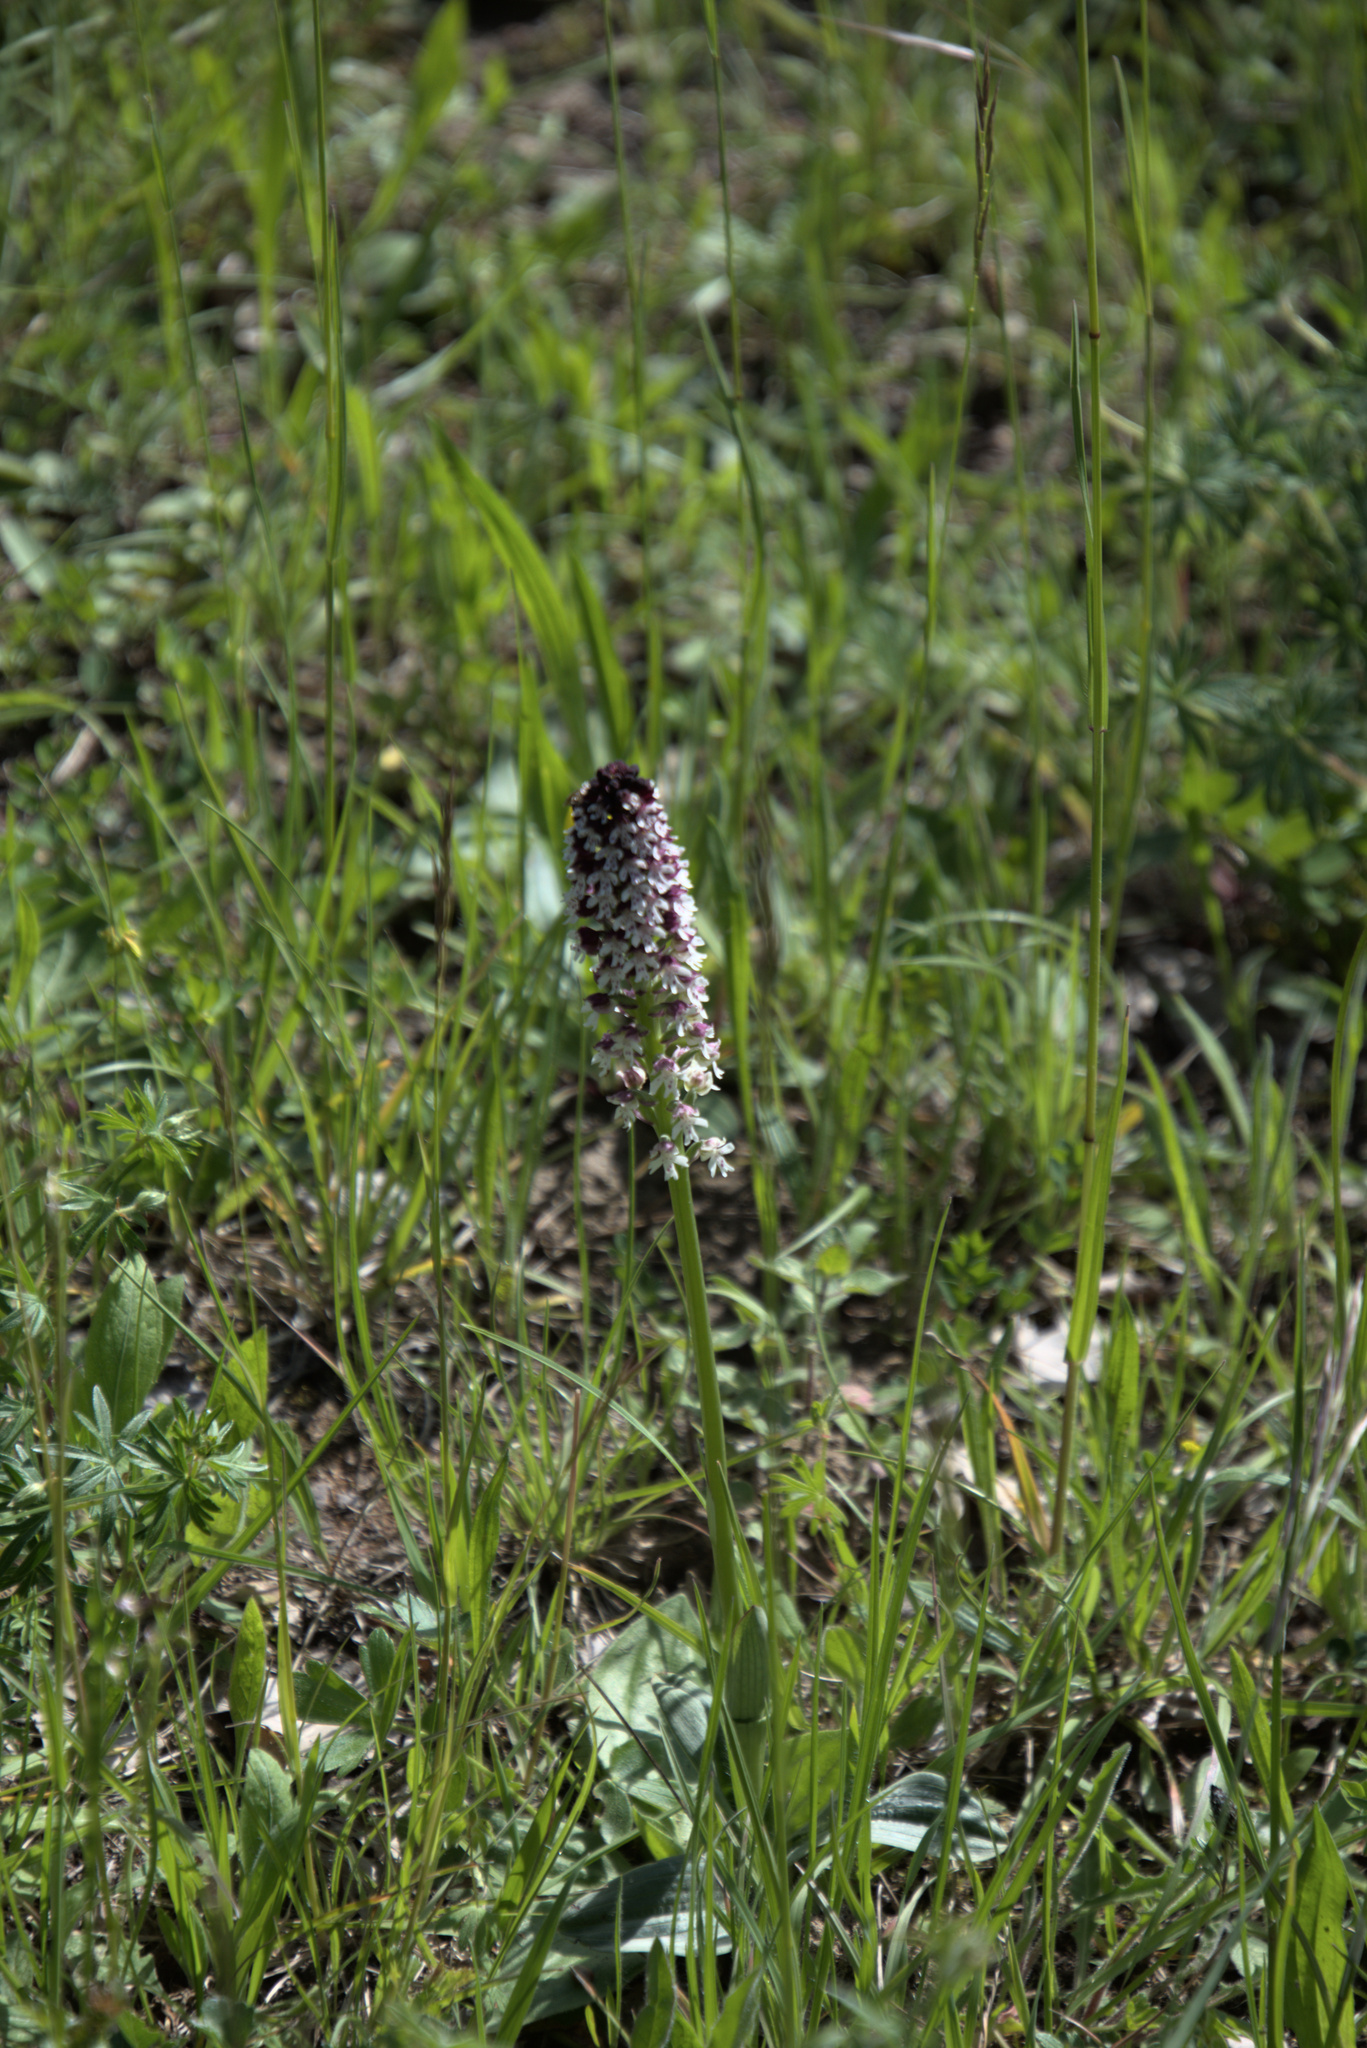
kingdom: Plantae
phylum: Tracheophyta
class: Liliopsida
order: Asparagales
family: Orchidaceae
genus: Neotinea
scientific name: Neotinea ustulata
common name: Burnt orchid
